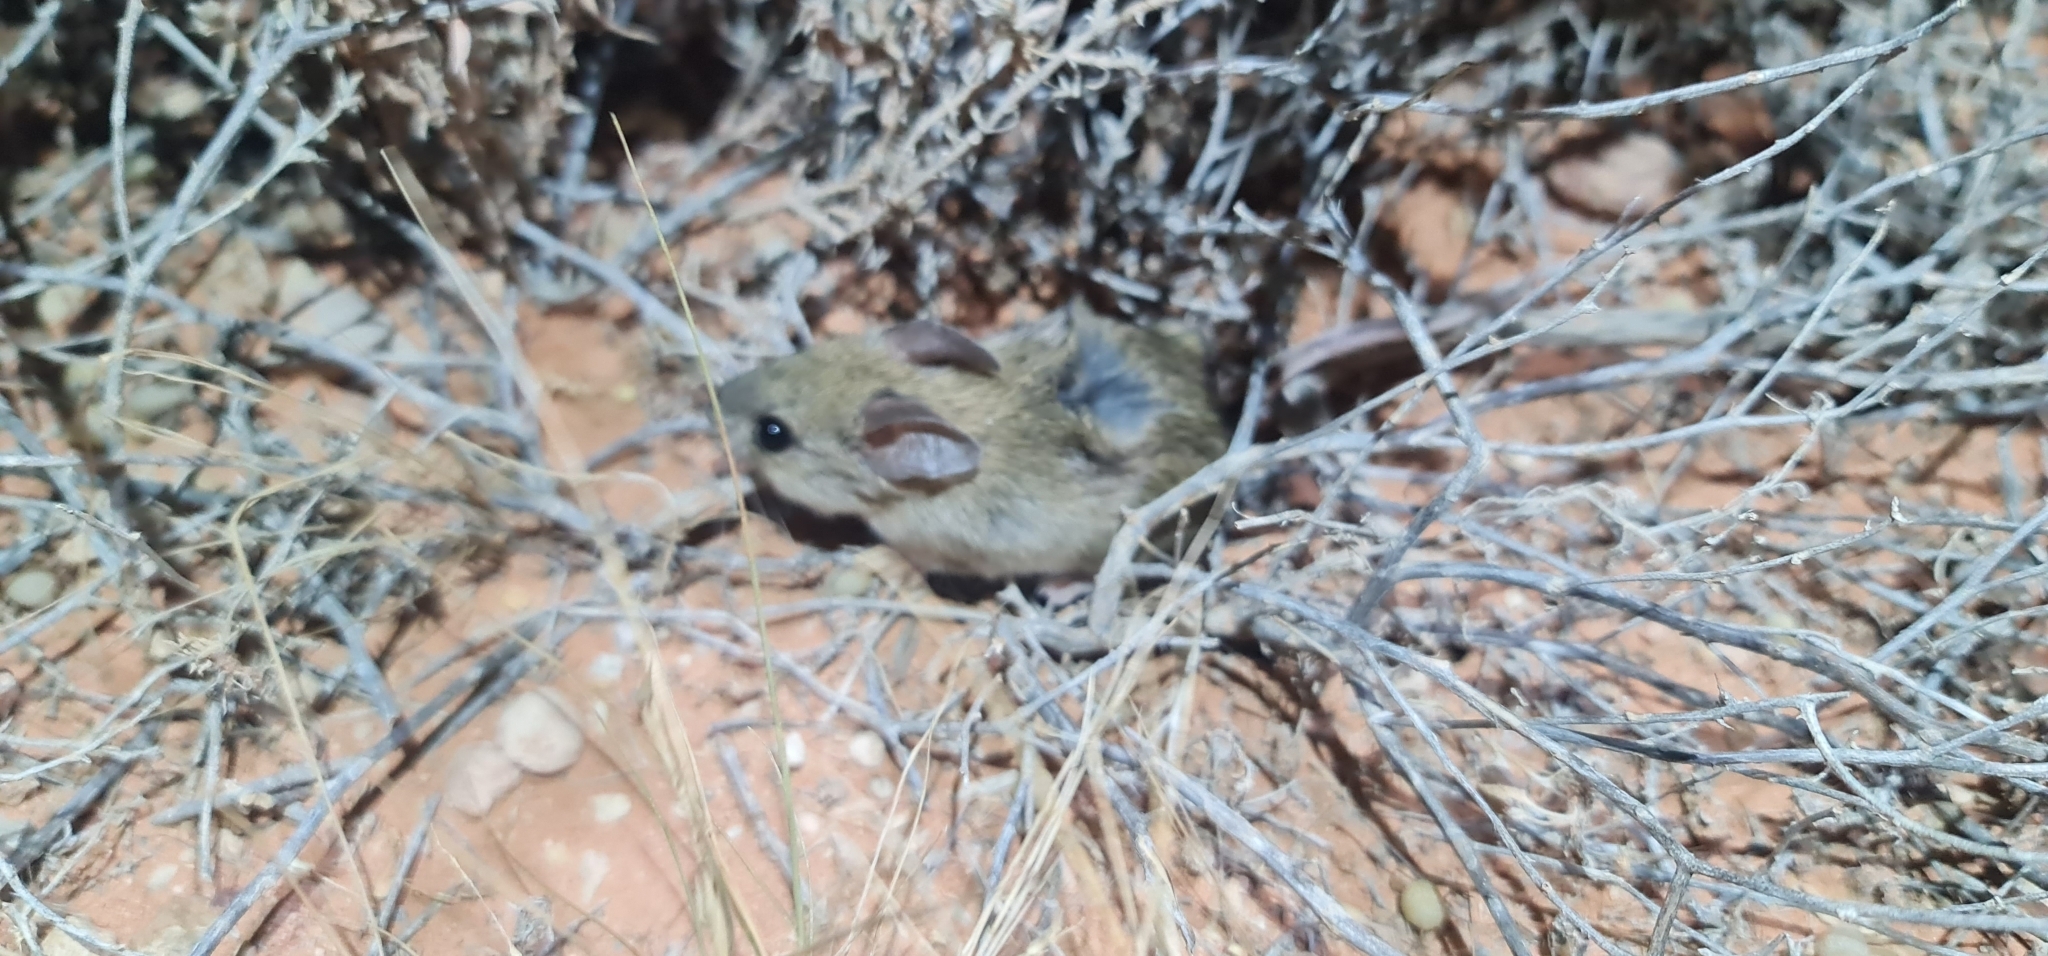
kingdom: Animalia
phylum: Chordata
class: Mammalia
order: Rodentia
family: Muridae
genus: Pseudomys
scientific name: Pseudomys australis
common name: Plains pseudomys
